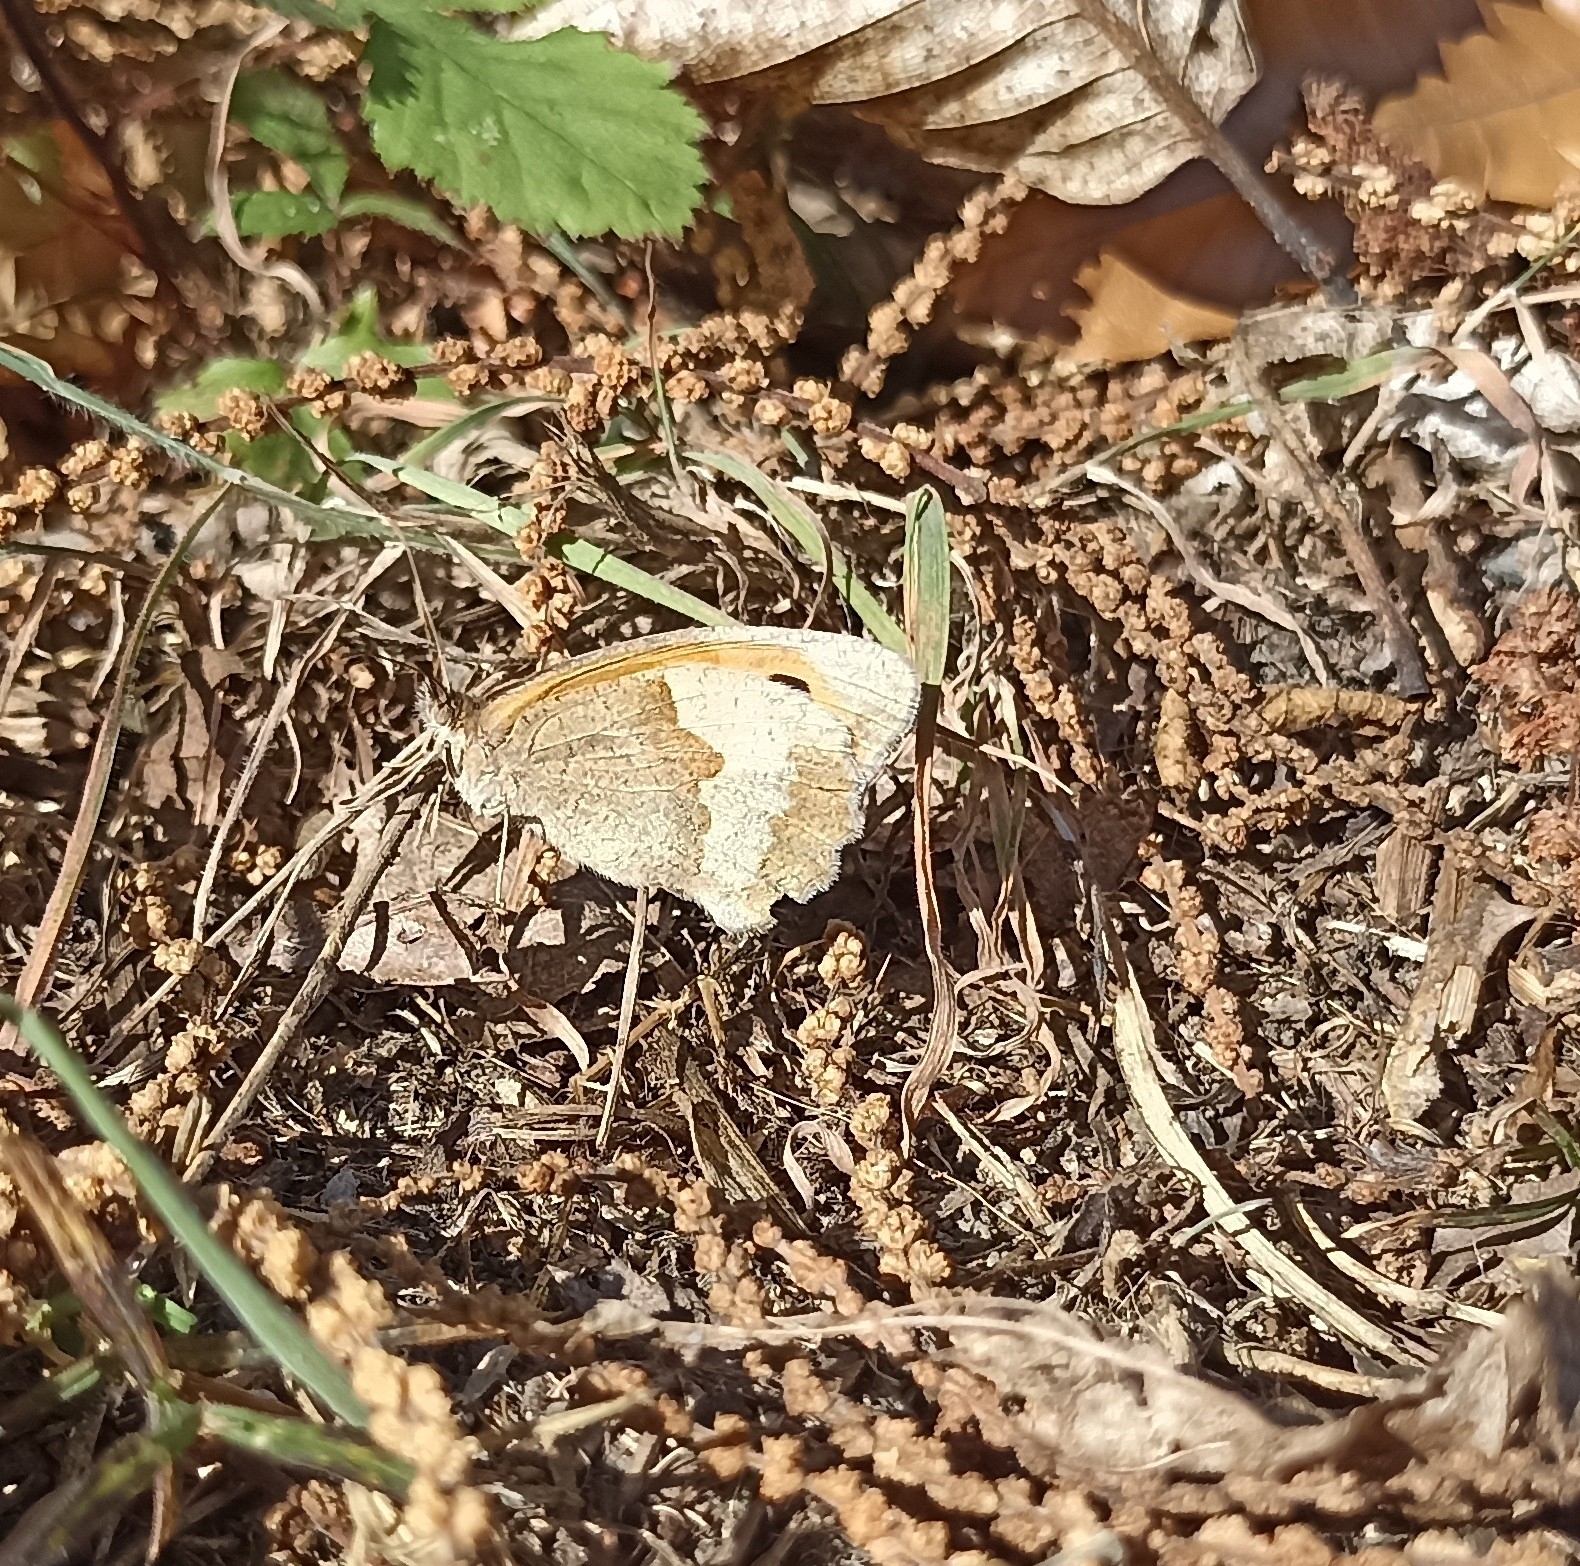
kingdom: Animalia
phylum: Arthropoda
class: Insecta
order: Lepidoptera
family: Nymphalidae
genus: Maniola
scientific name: Maniola jurtina
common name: Meadow brown
